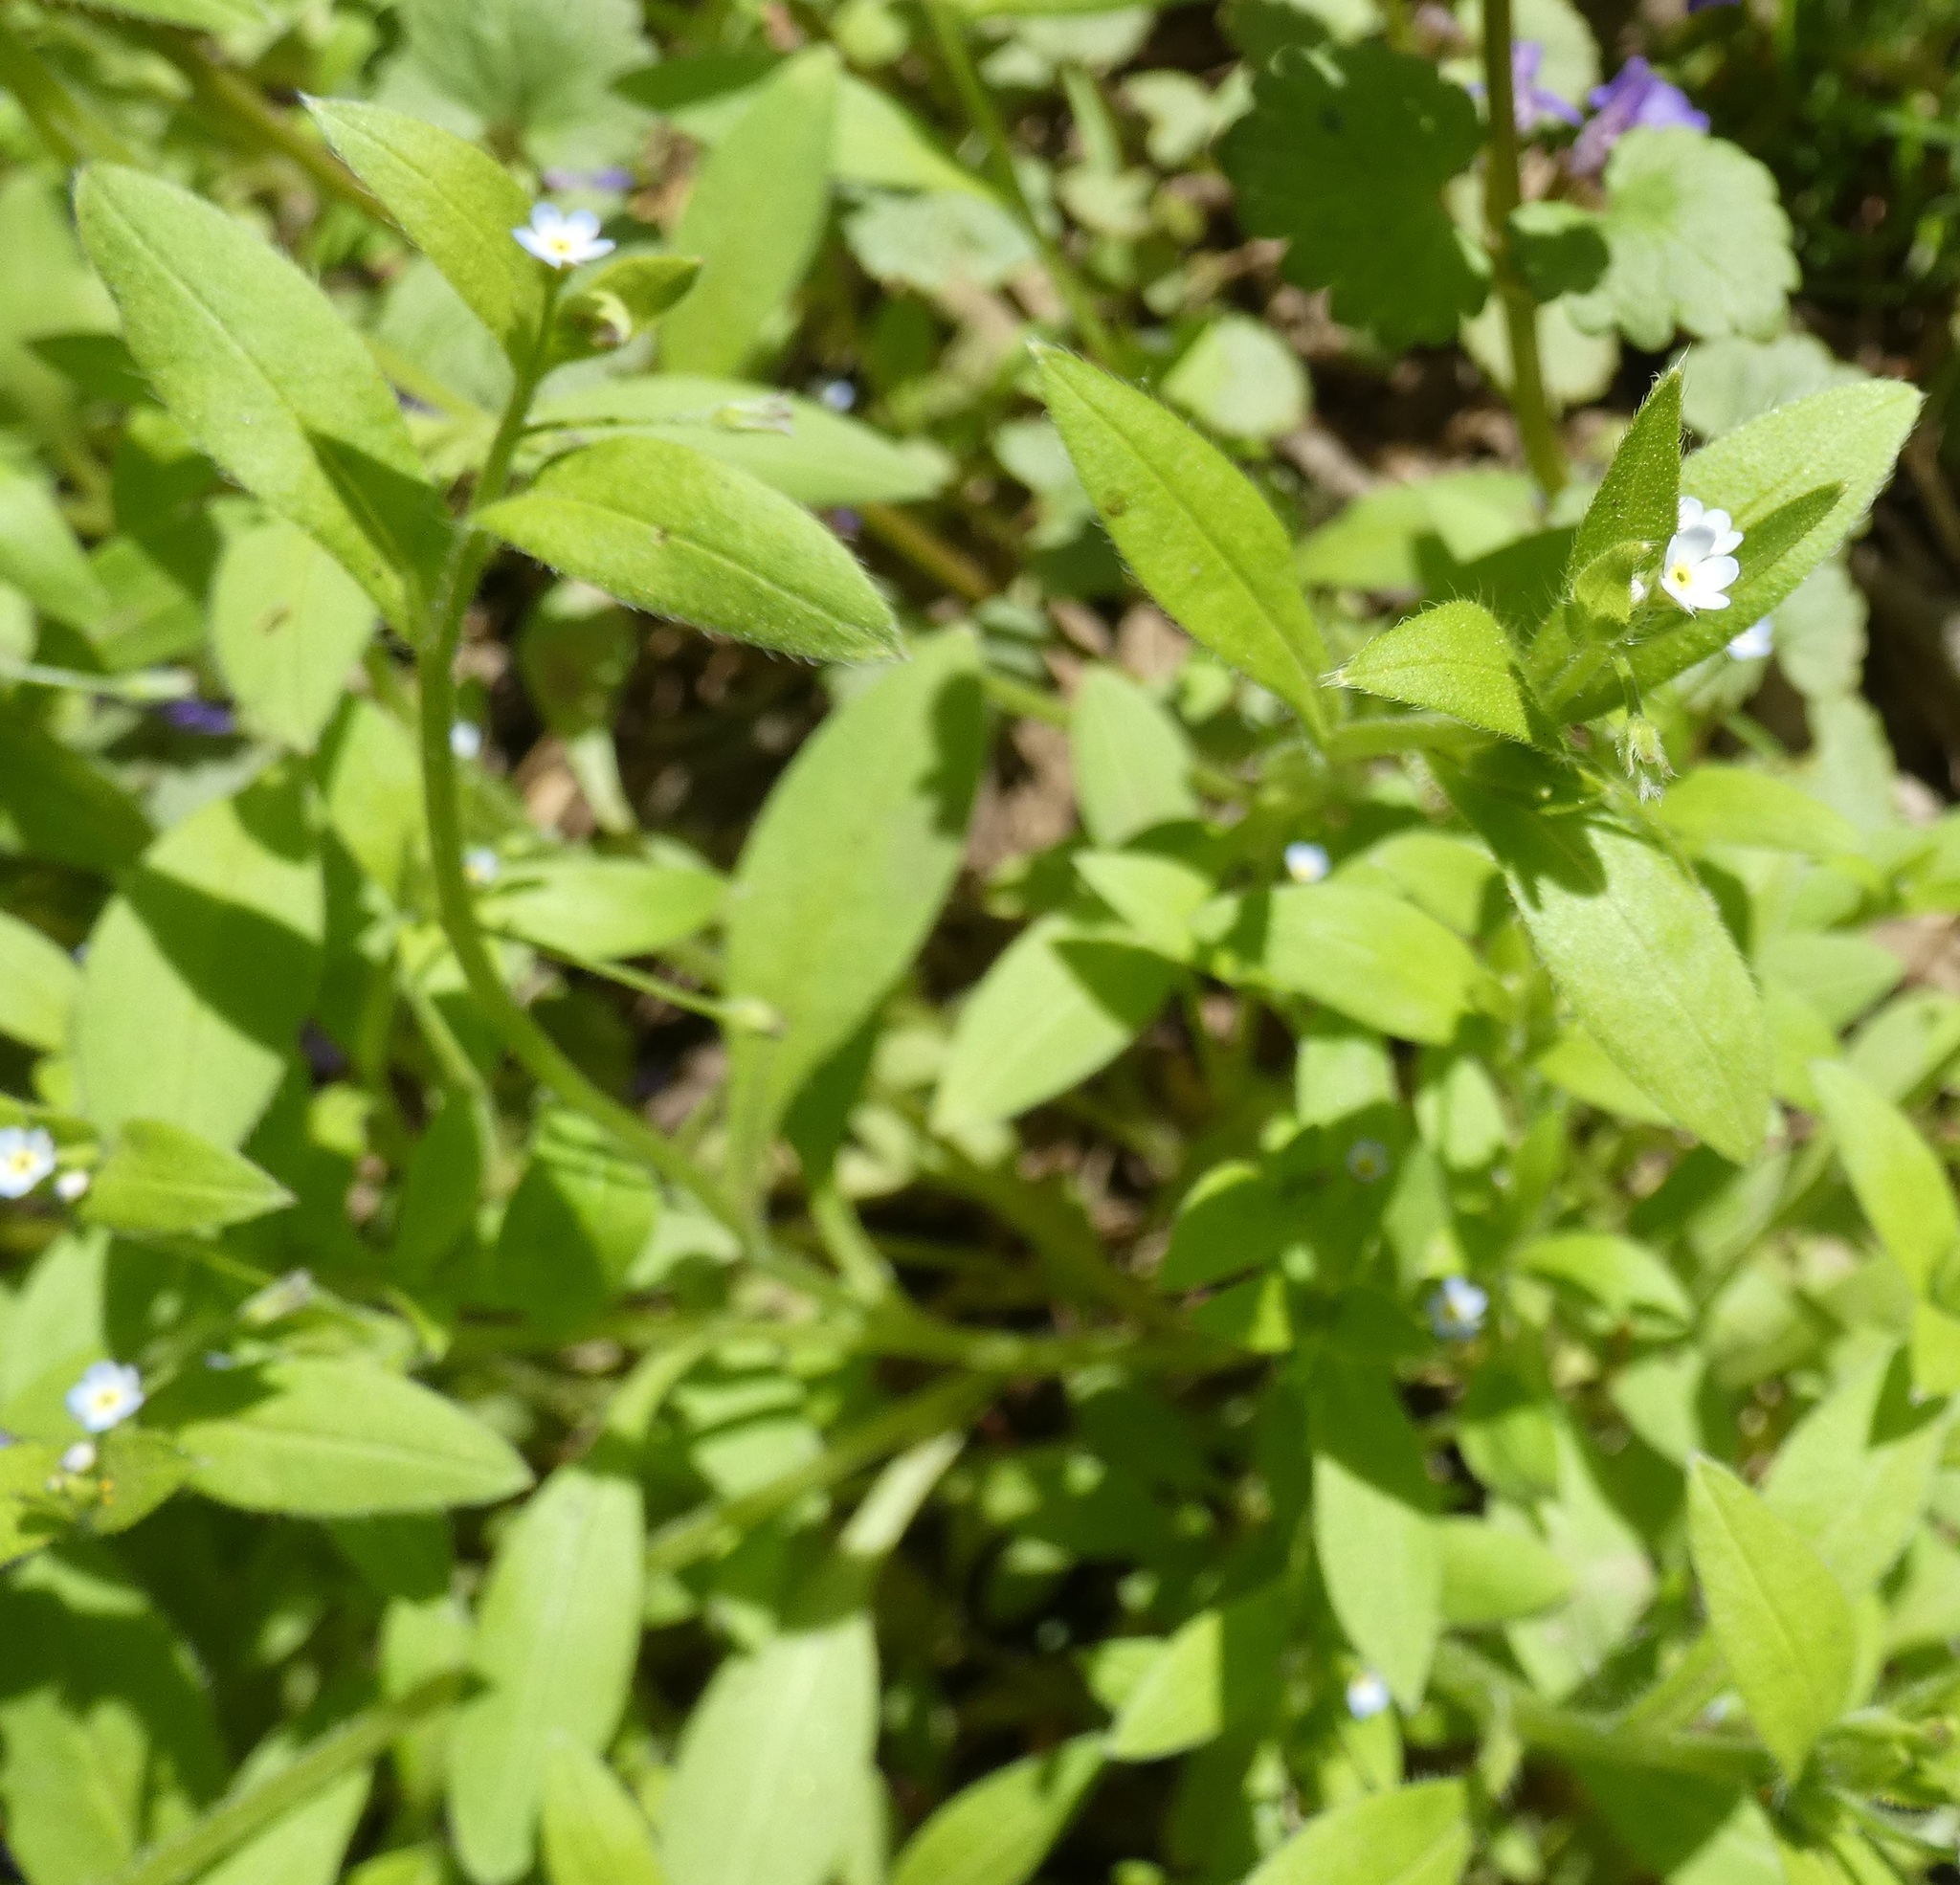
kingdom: Plantae
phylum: Tracheophyta
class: Magnoliopsida
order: Boraginales
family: Boraginaceae
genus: Myosotis
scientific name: Myosotis sparsiflora
